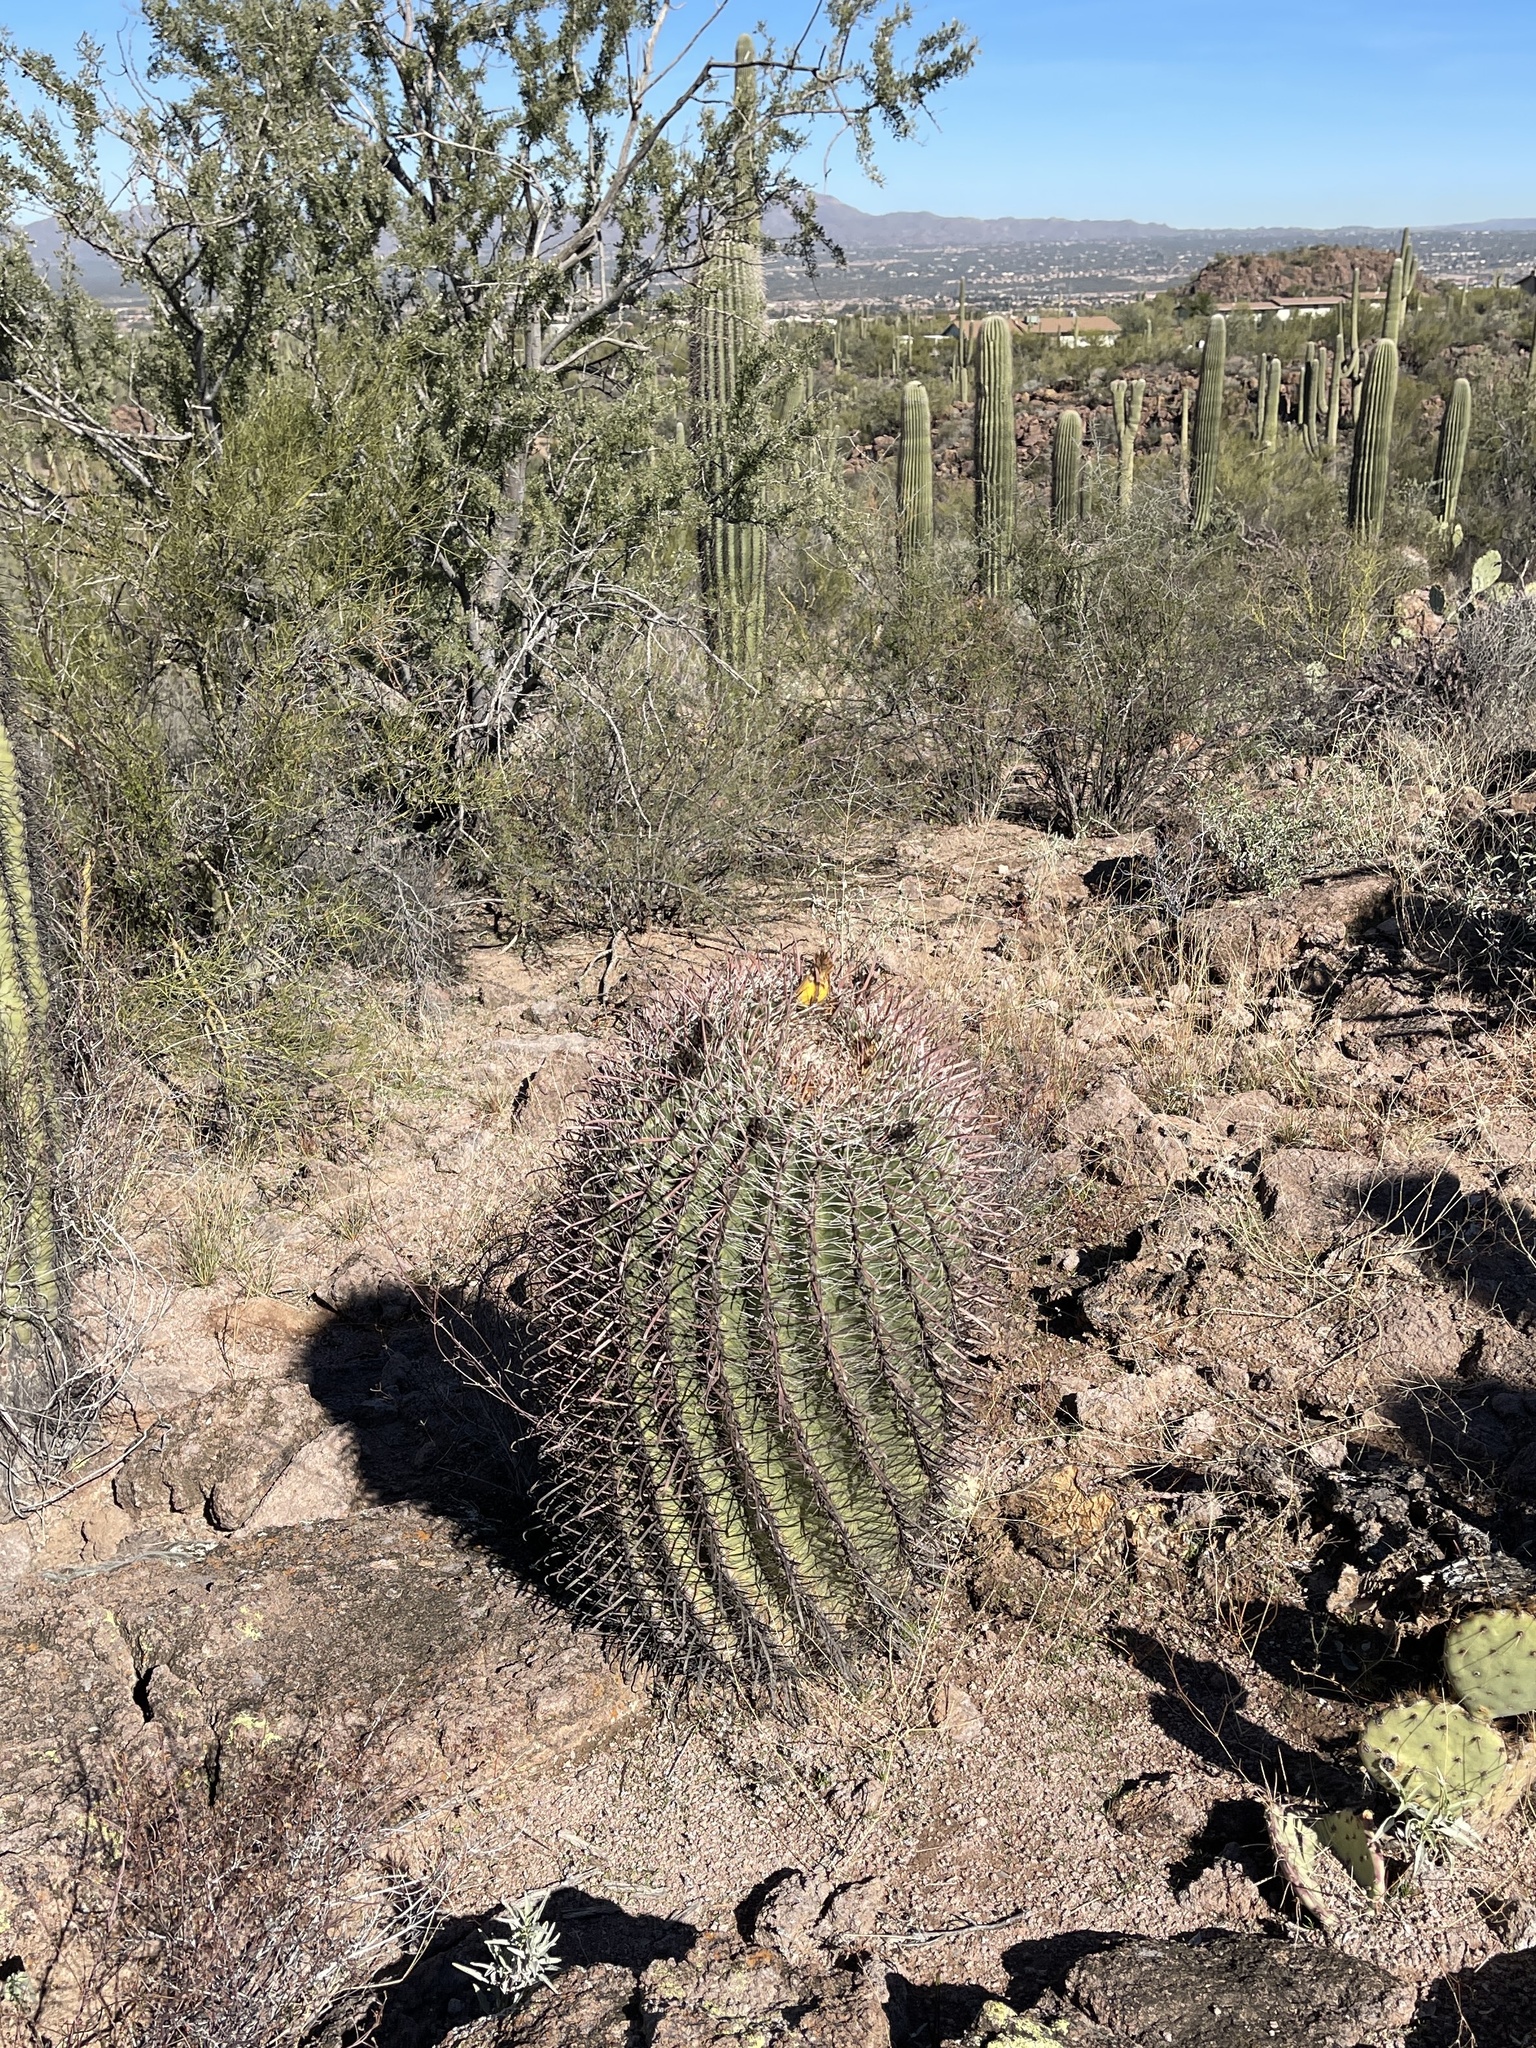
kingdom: Plantae
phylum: Tracheophyta
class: Magnoliopsida
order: Caryophyllales
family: Cactaceae
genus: Ferocactus
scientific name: Ferocactus wislizeni
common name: Candy barrel cactus
